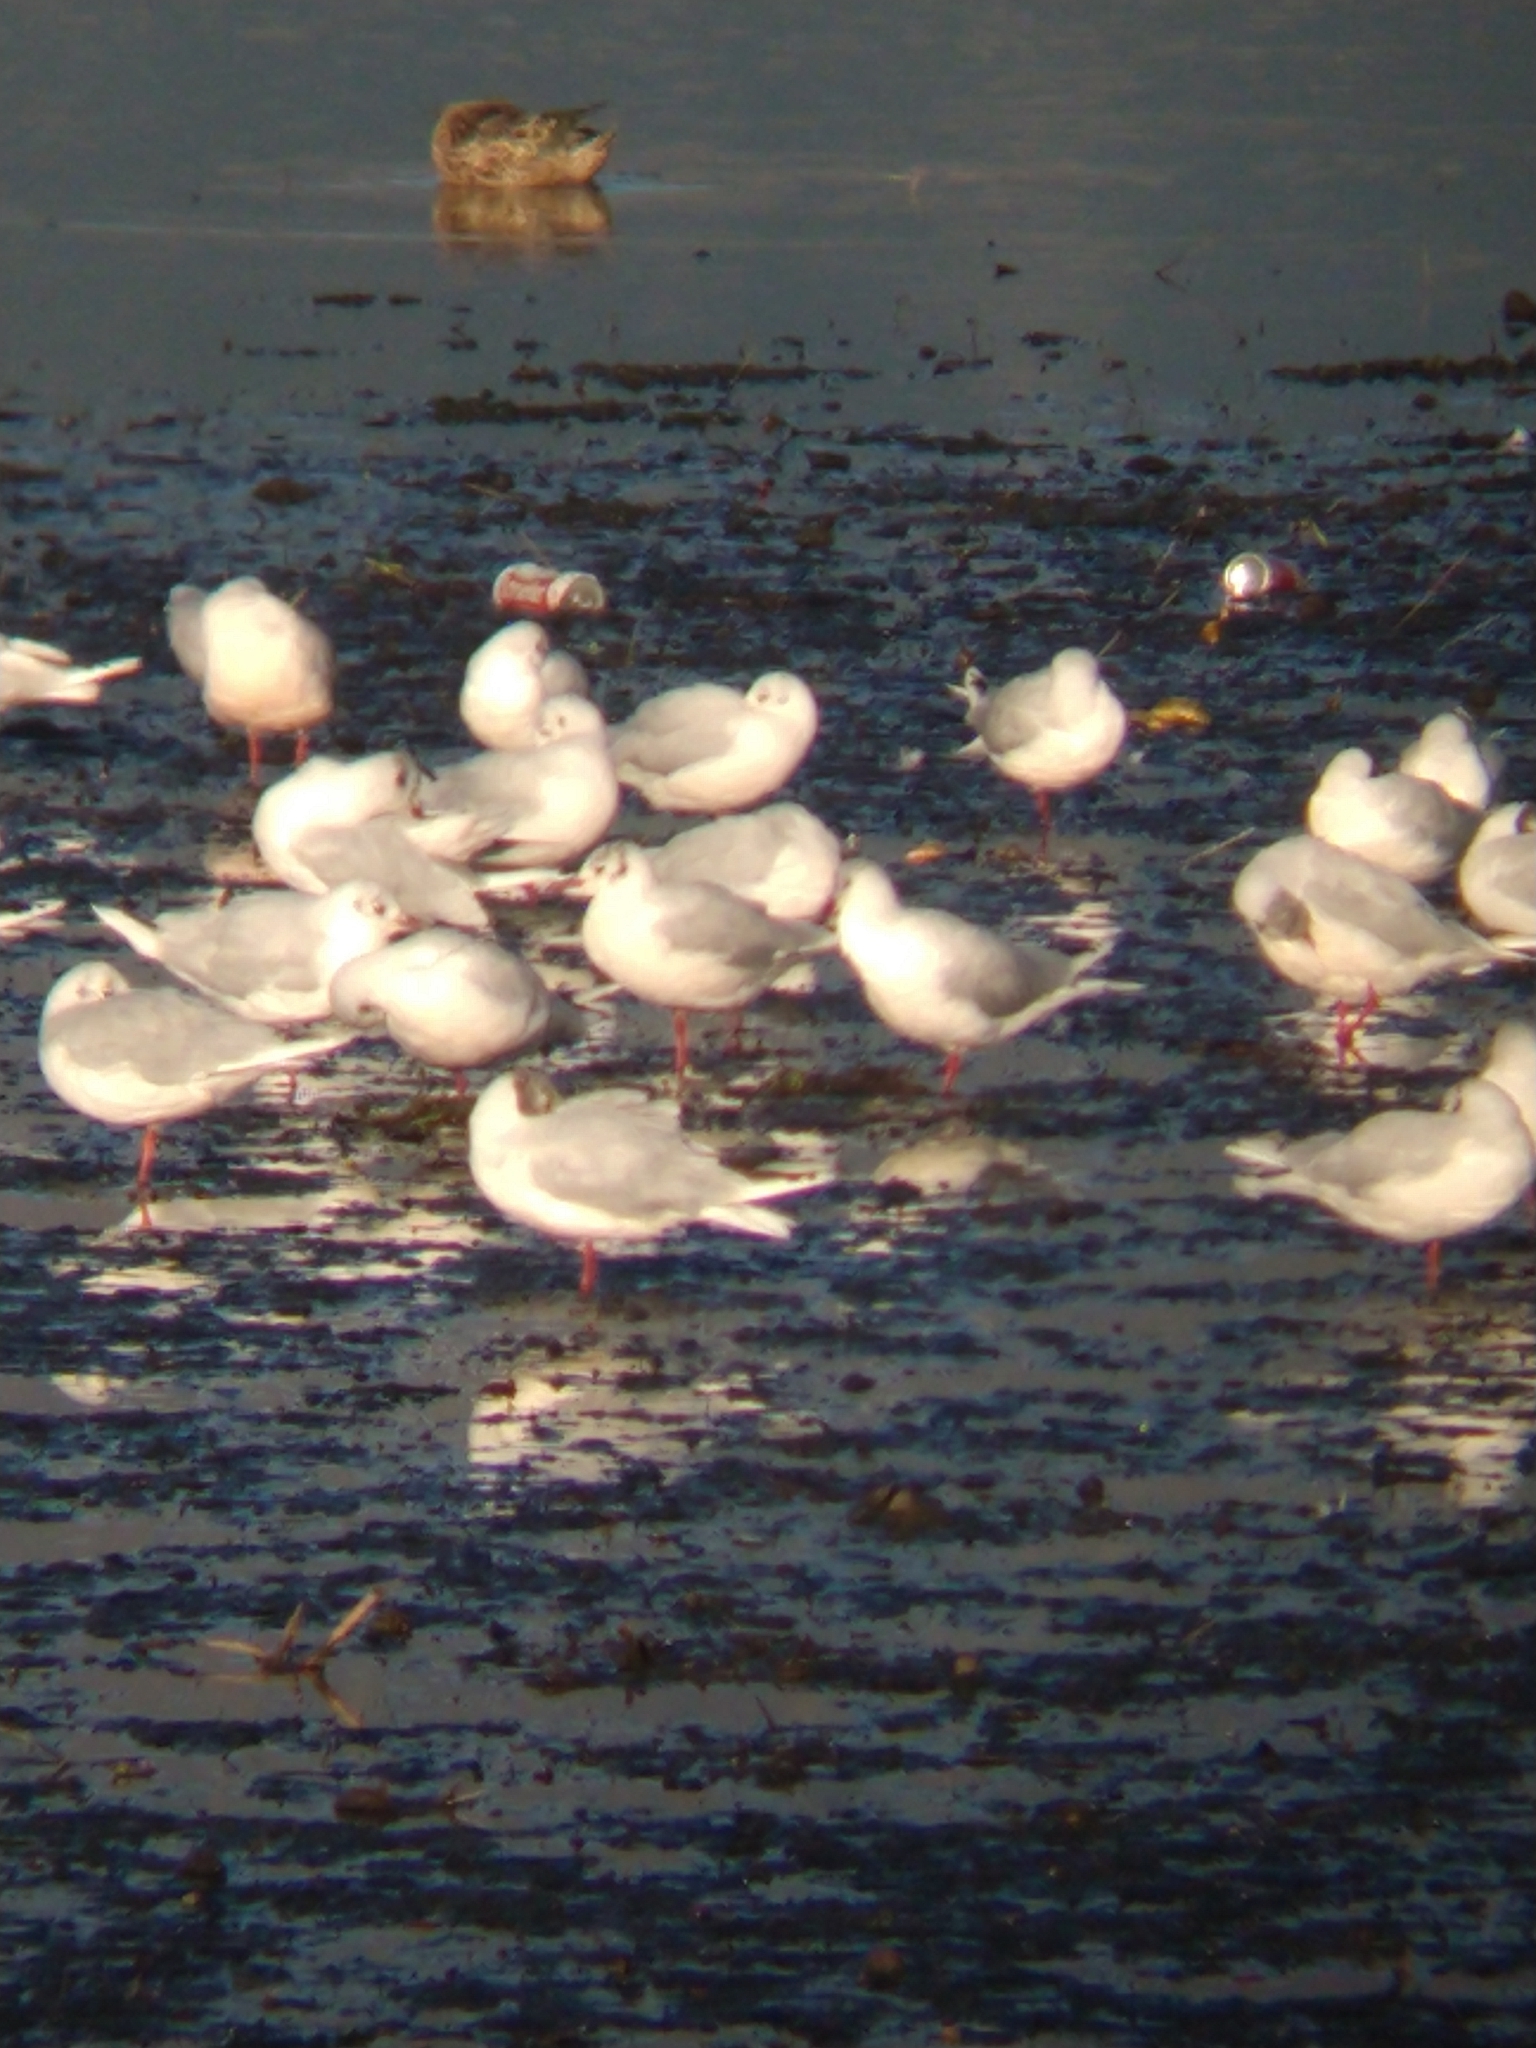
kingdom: Animalia
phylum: Chordata
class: Aves
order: Charadriiformes
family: Laridae
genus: Chroicocephalus
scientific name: Chroicocephalus maculipennis
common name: Brown-hooded gull
